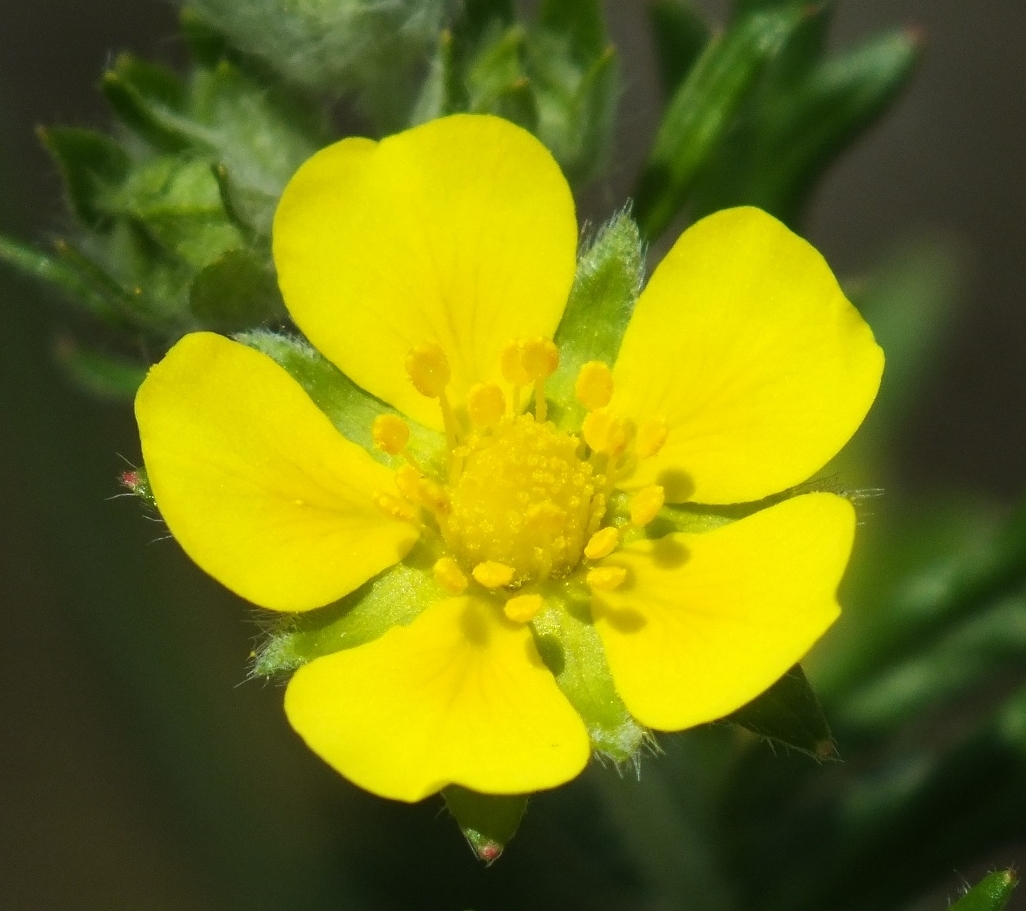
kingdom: Plantae
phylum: Tracheophyta
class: Magnoliopsida
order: Rosales
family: Rosaceae
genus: Potentilla
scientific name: Potentilla argentea
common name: Hoary cinquefoil
